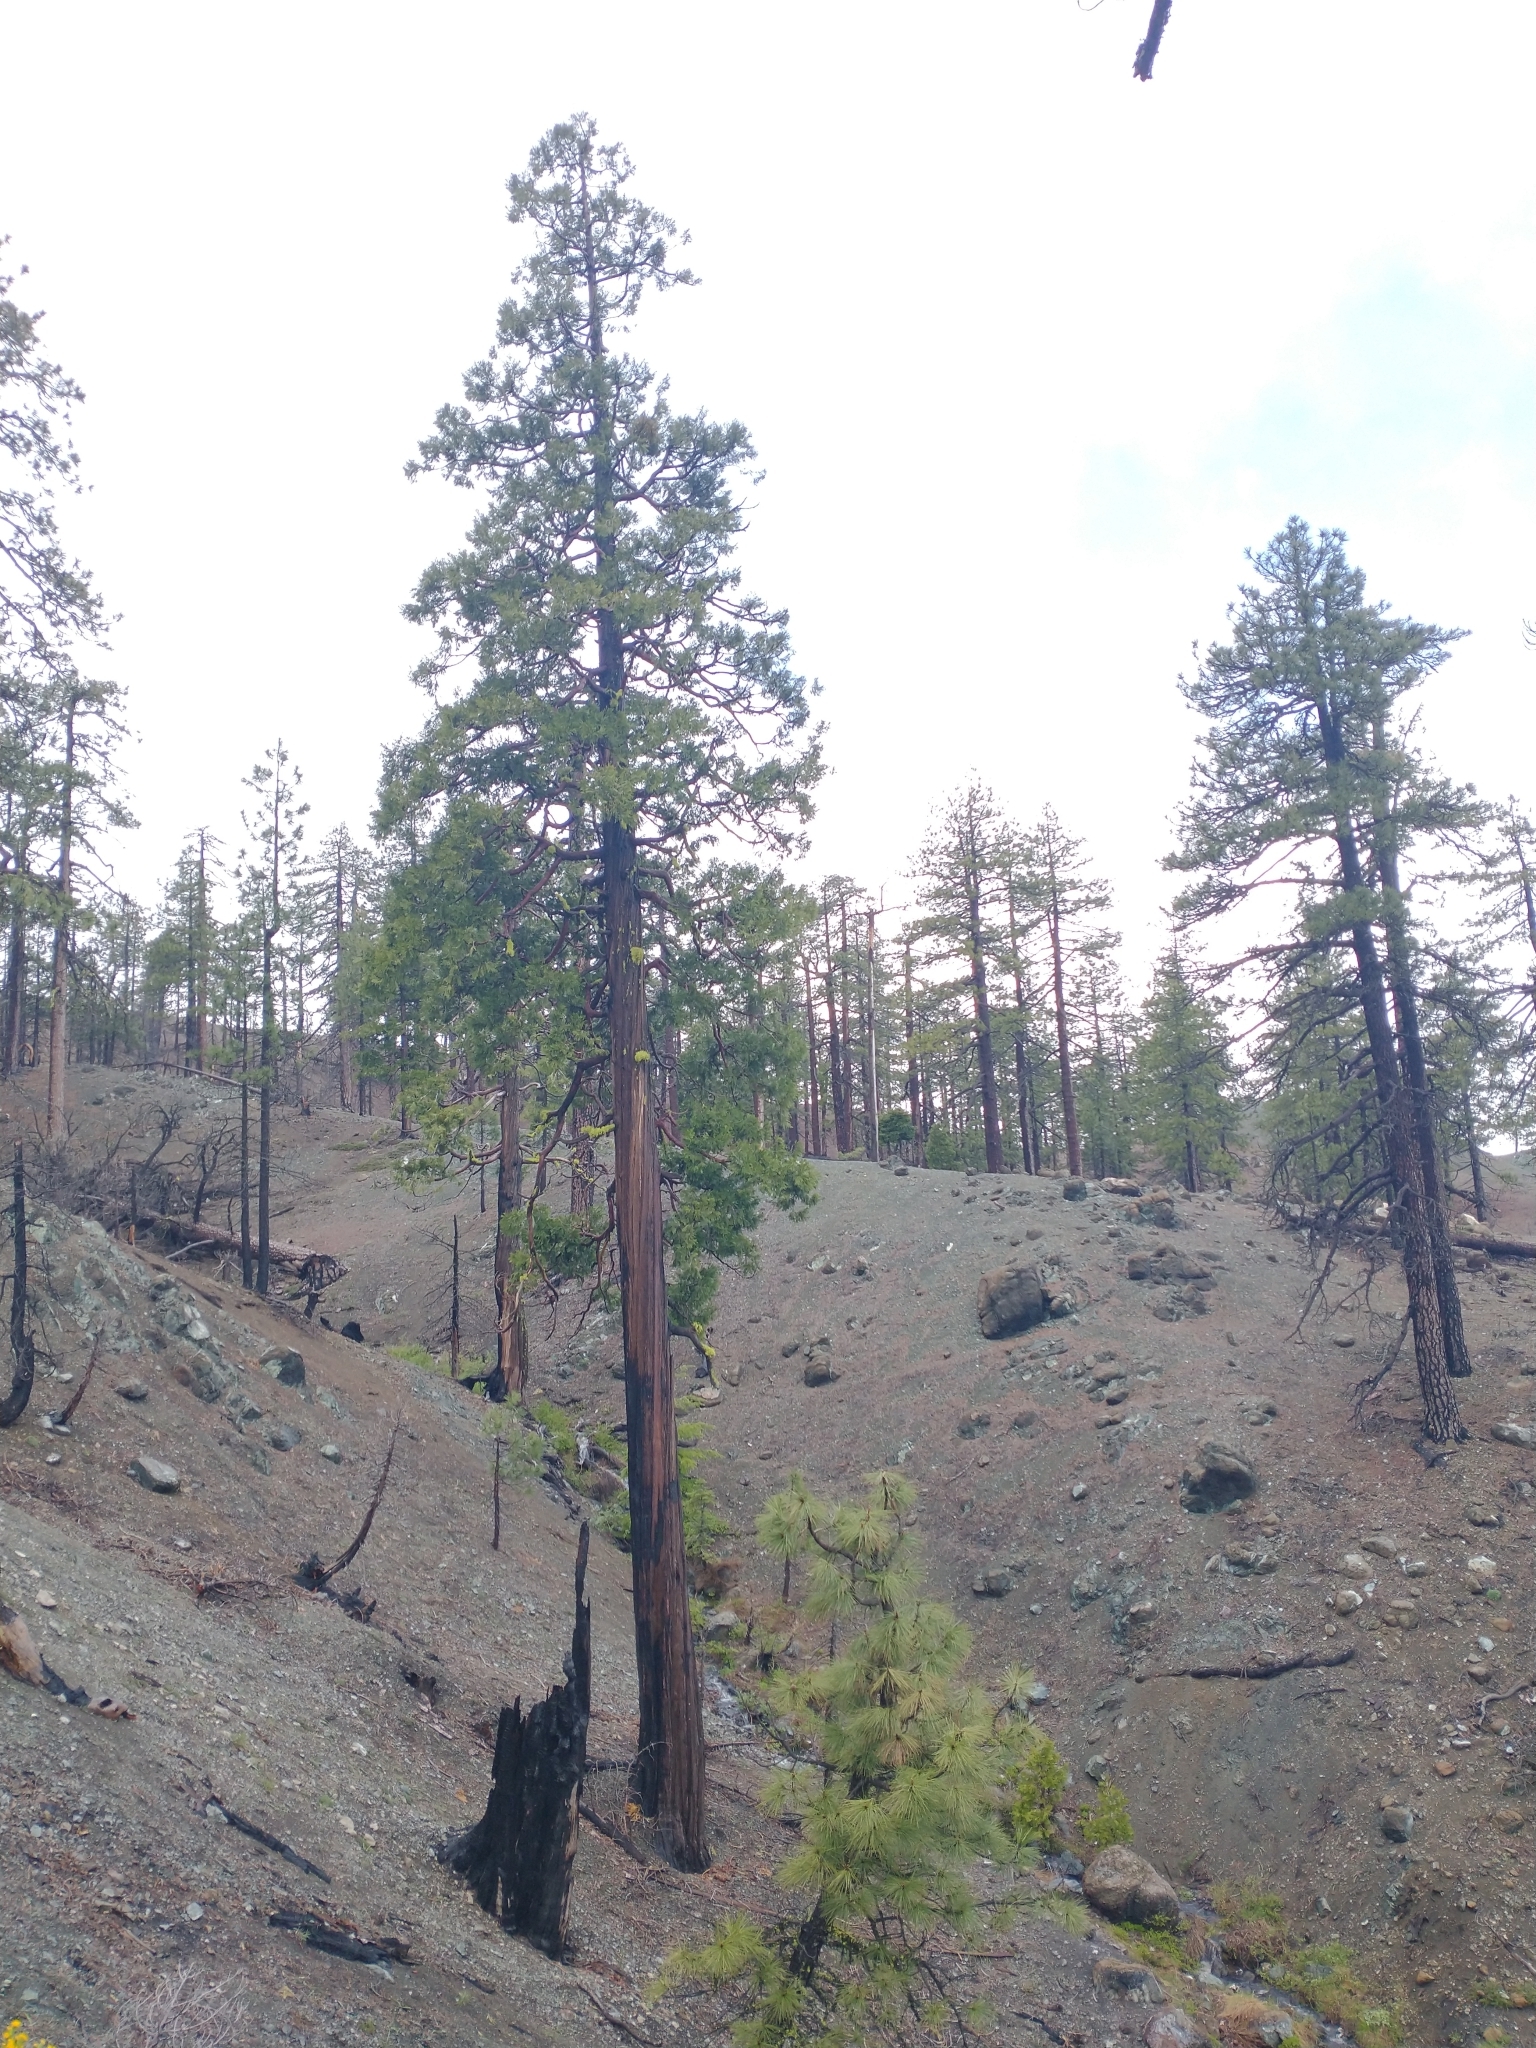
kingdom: Plantae
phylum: Tracheophyta
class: Pinopsida
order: Pinales
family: Cupressaceae
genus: Calocedrus
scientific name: Calocedrus decurrens
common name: Californian incense-cedar
